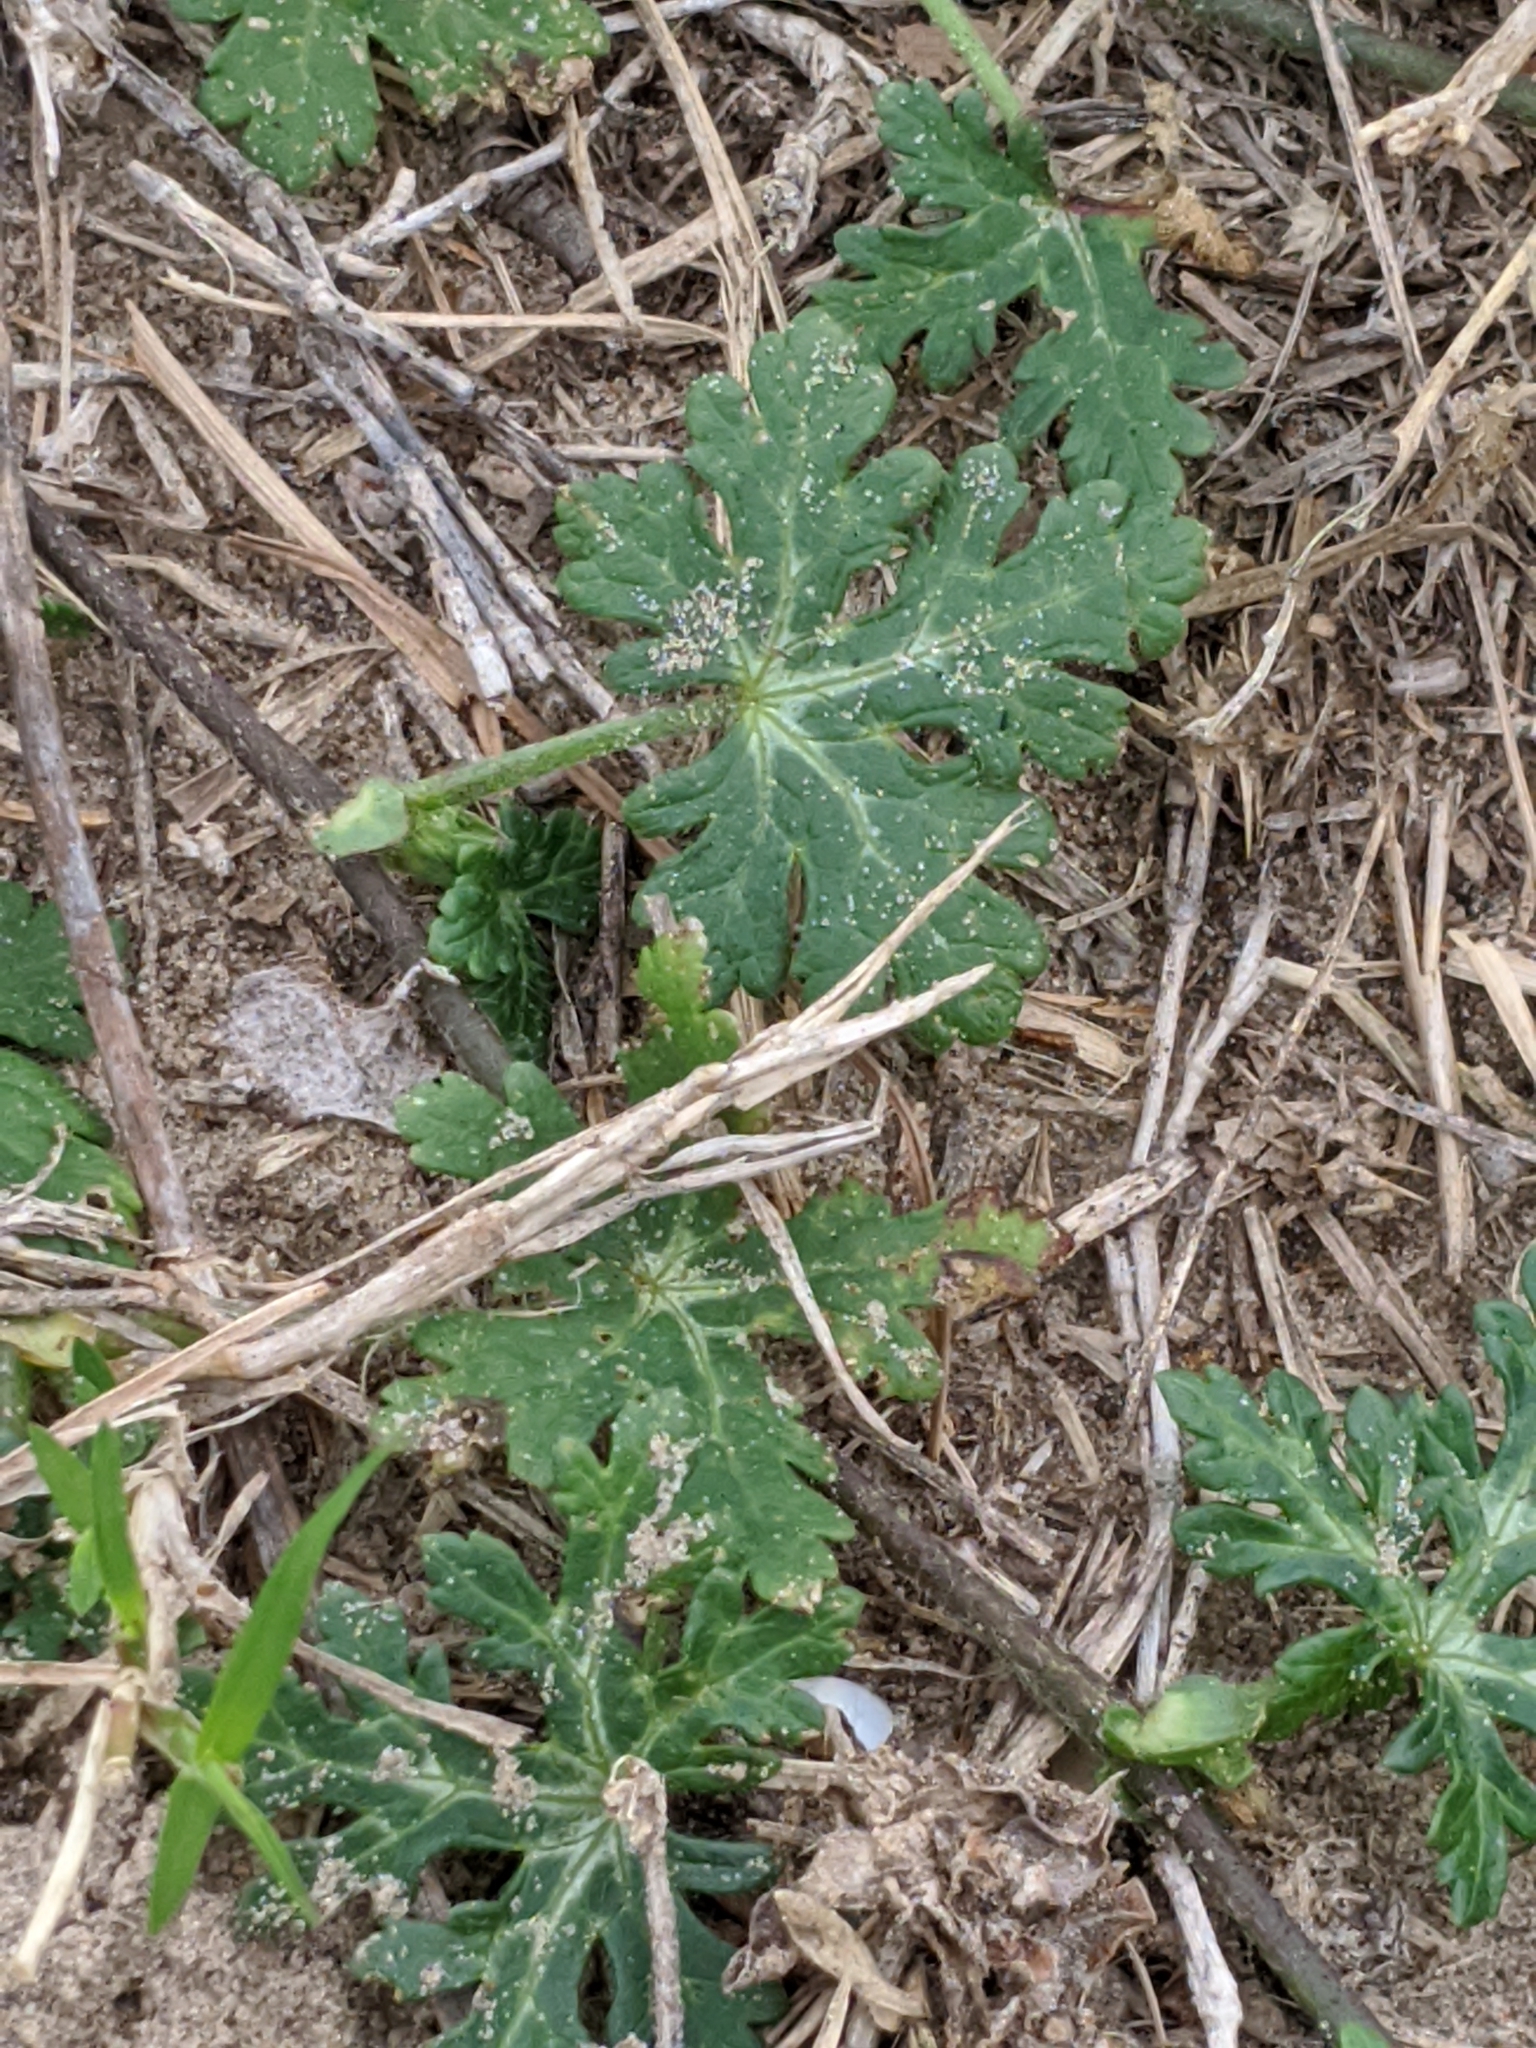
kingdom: Plantae
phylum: Tracheophyta
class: Magnoliopsida
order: Malvales
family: Malvaceae
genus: Callirhoe
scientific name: Callirhoe involucrata
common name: Purple poppy-mallow
